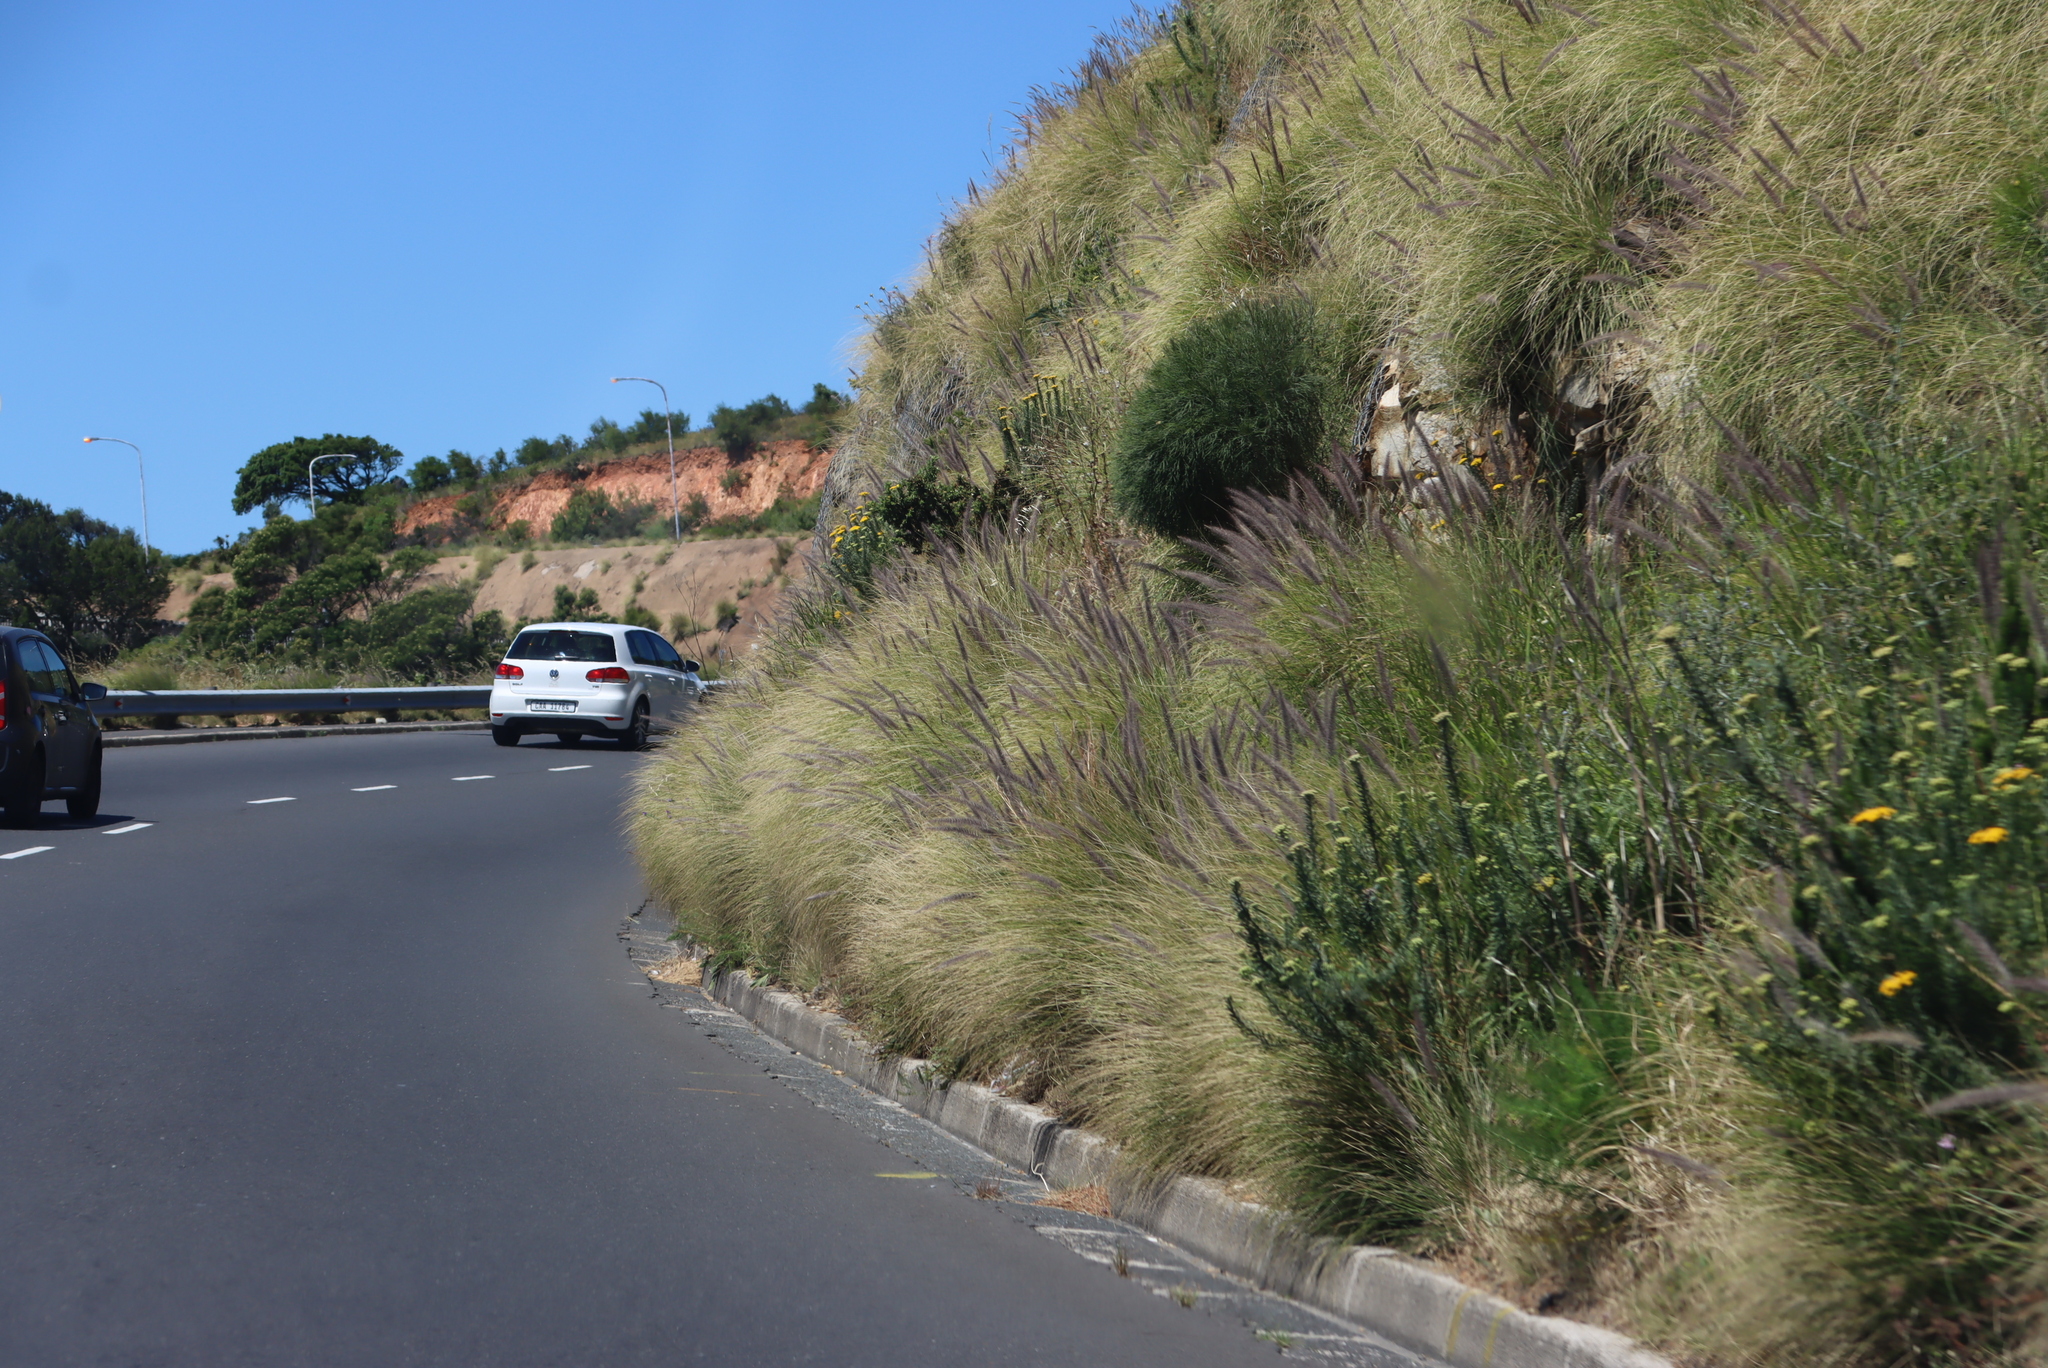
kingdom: Plantae
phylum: Tracheophyta
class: Liliopsida
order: Poales
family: Poaceae
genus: Cenchrus
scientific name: Cenchrus setaceus
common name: Crimson fountaingrass
